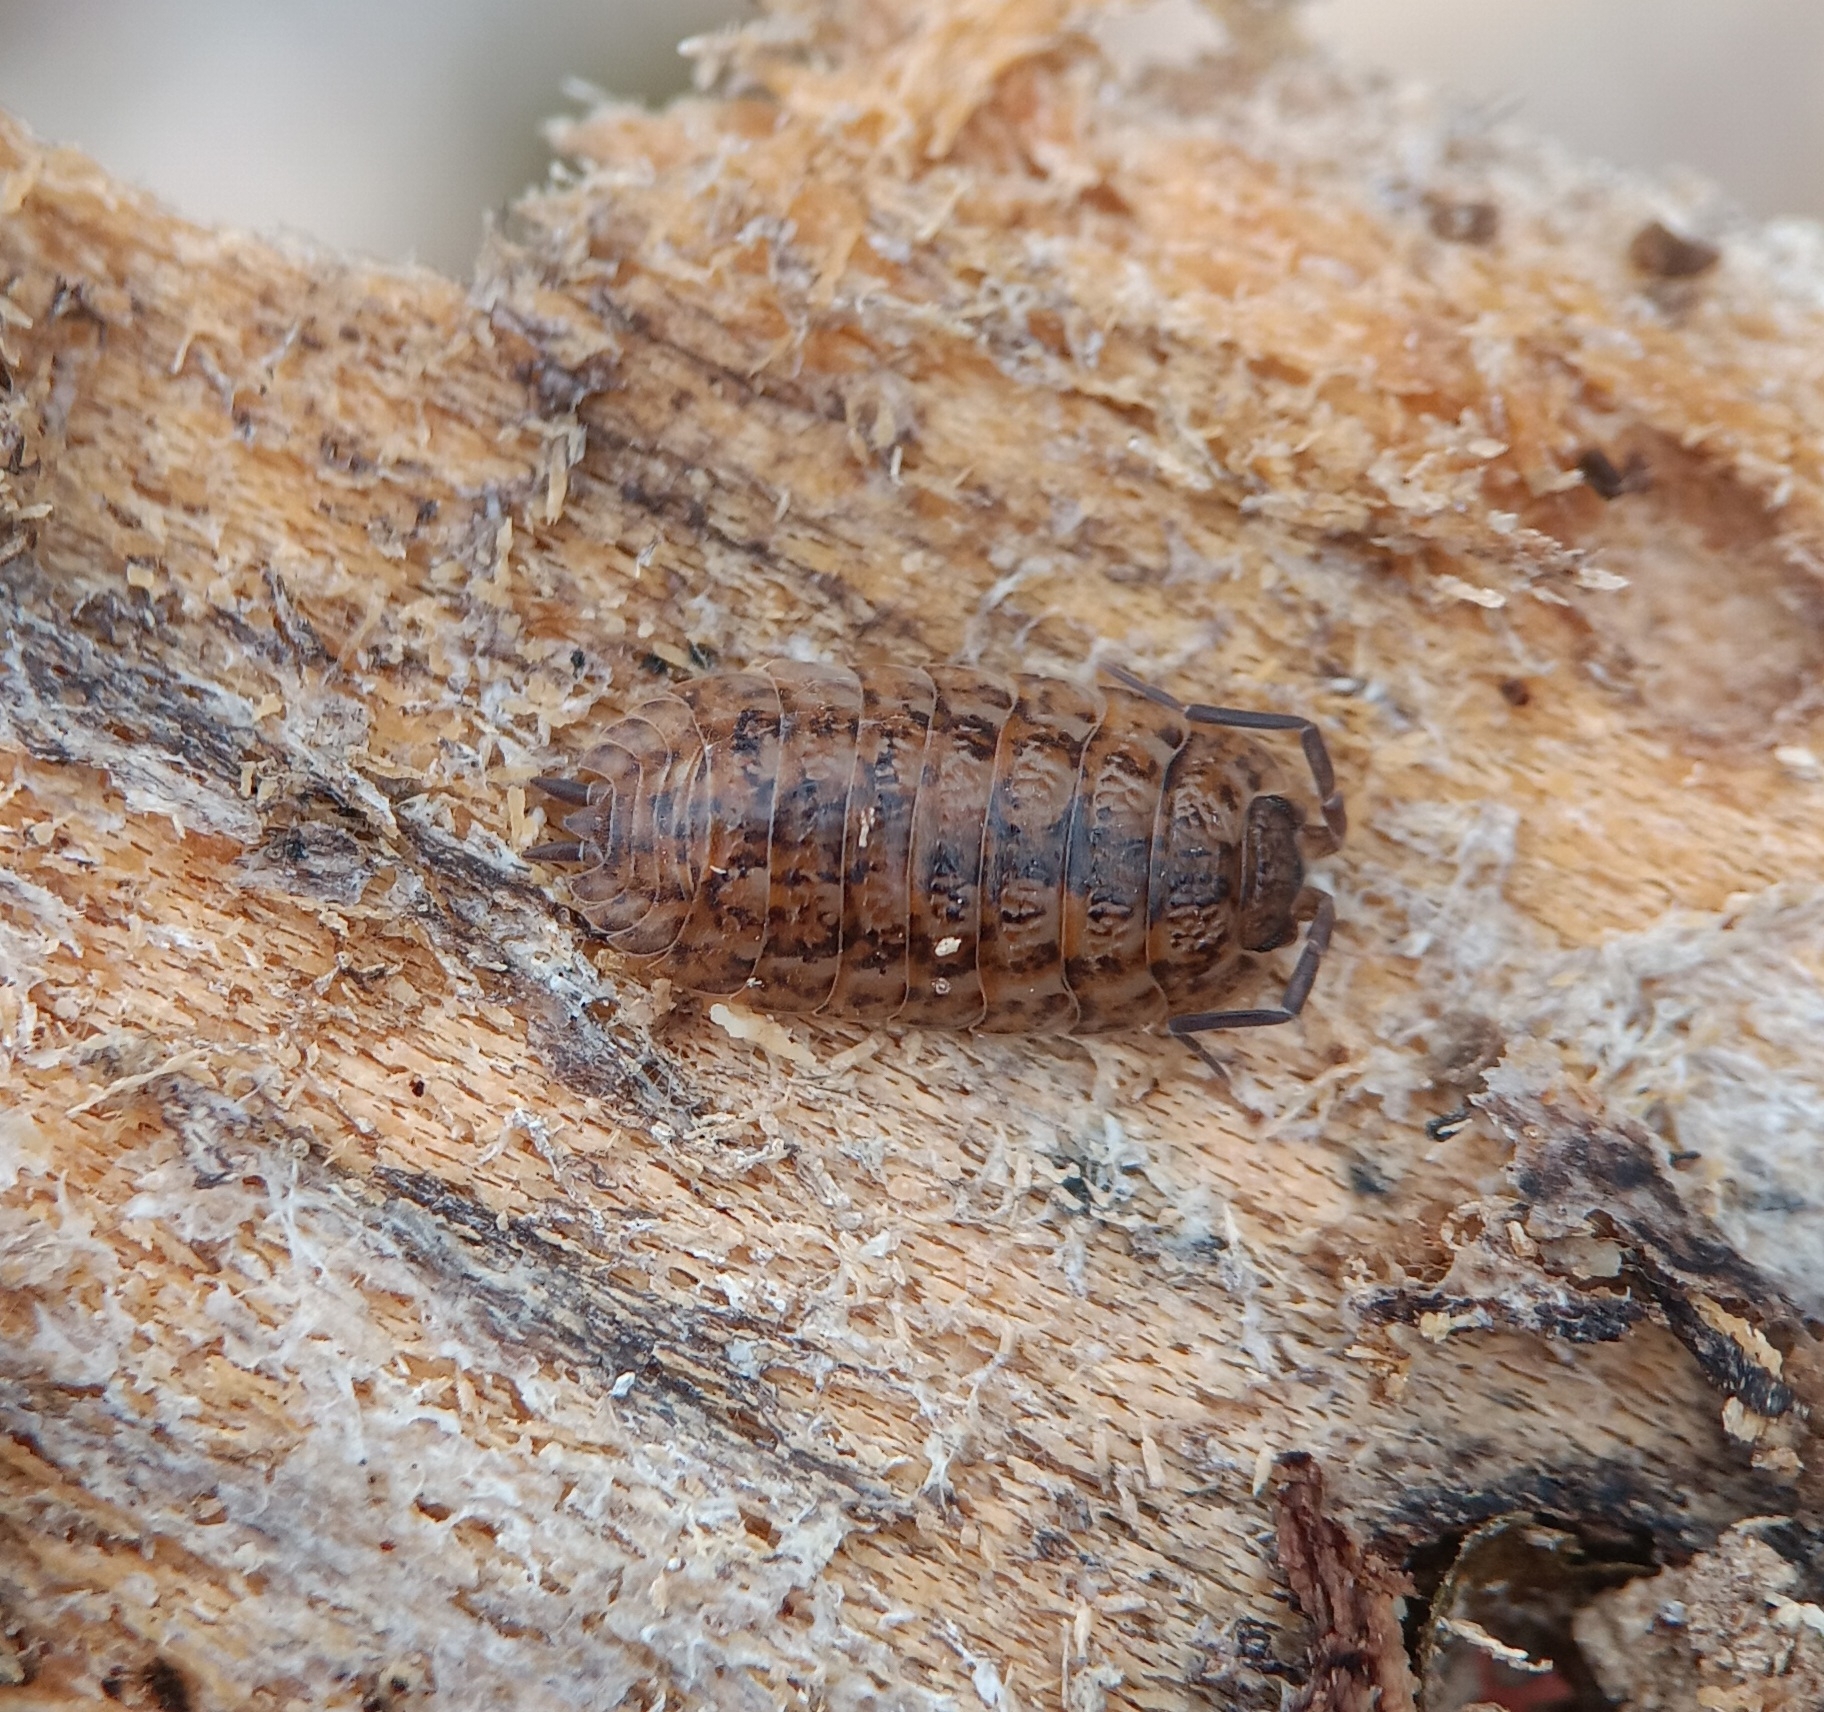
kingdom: Animalia
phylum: Arthropoda
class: Malacostraca
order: Isopoda
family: Trachelipodidae
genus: Trachelipus
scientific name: Trachelipus rathkii
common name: Isopod
